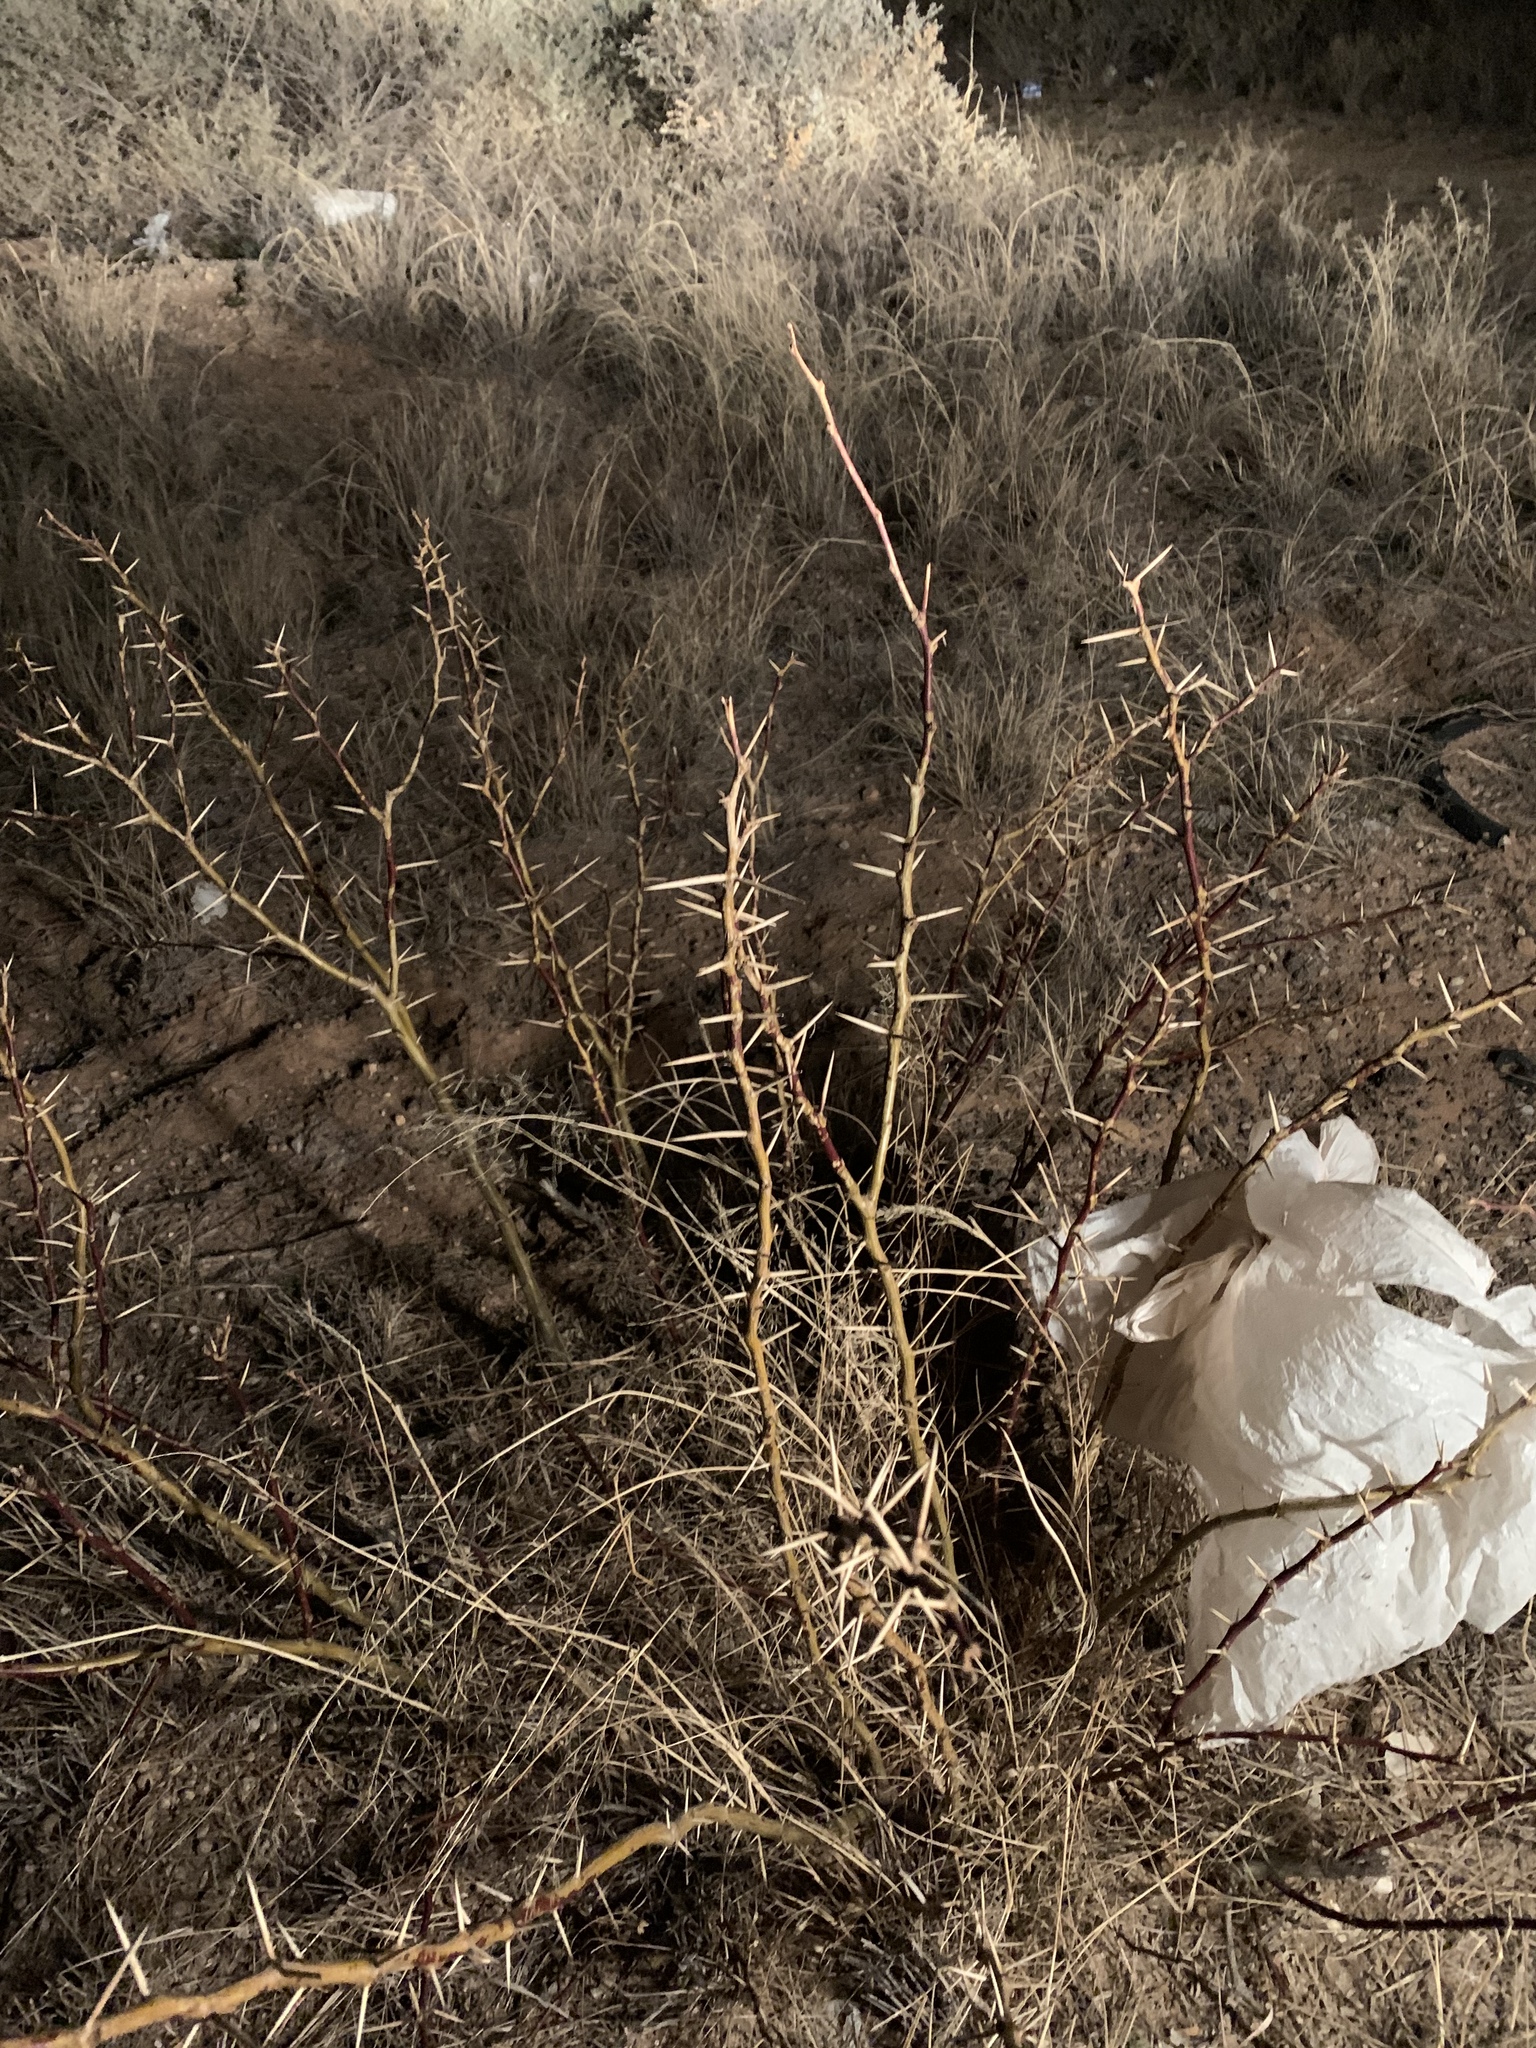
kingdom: Plantae
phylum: Tracheophyta
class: Magnoliopsida
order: Fabales
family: Fabaceae
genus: Prosopis
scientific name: Prosopis glandulosa
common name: Honey mesquite
